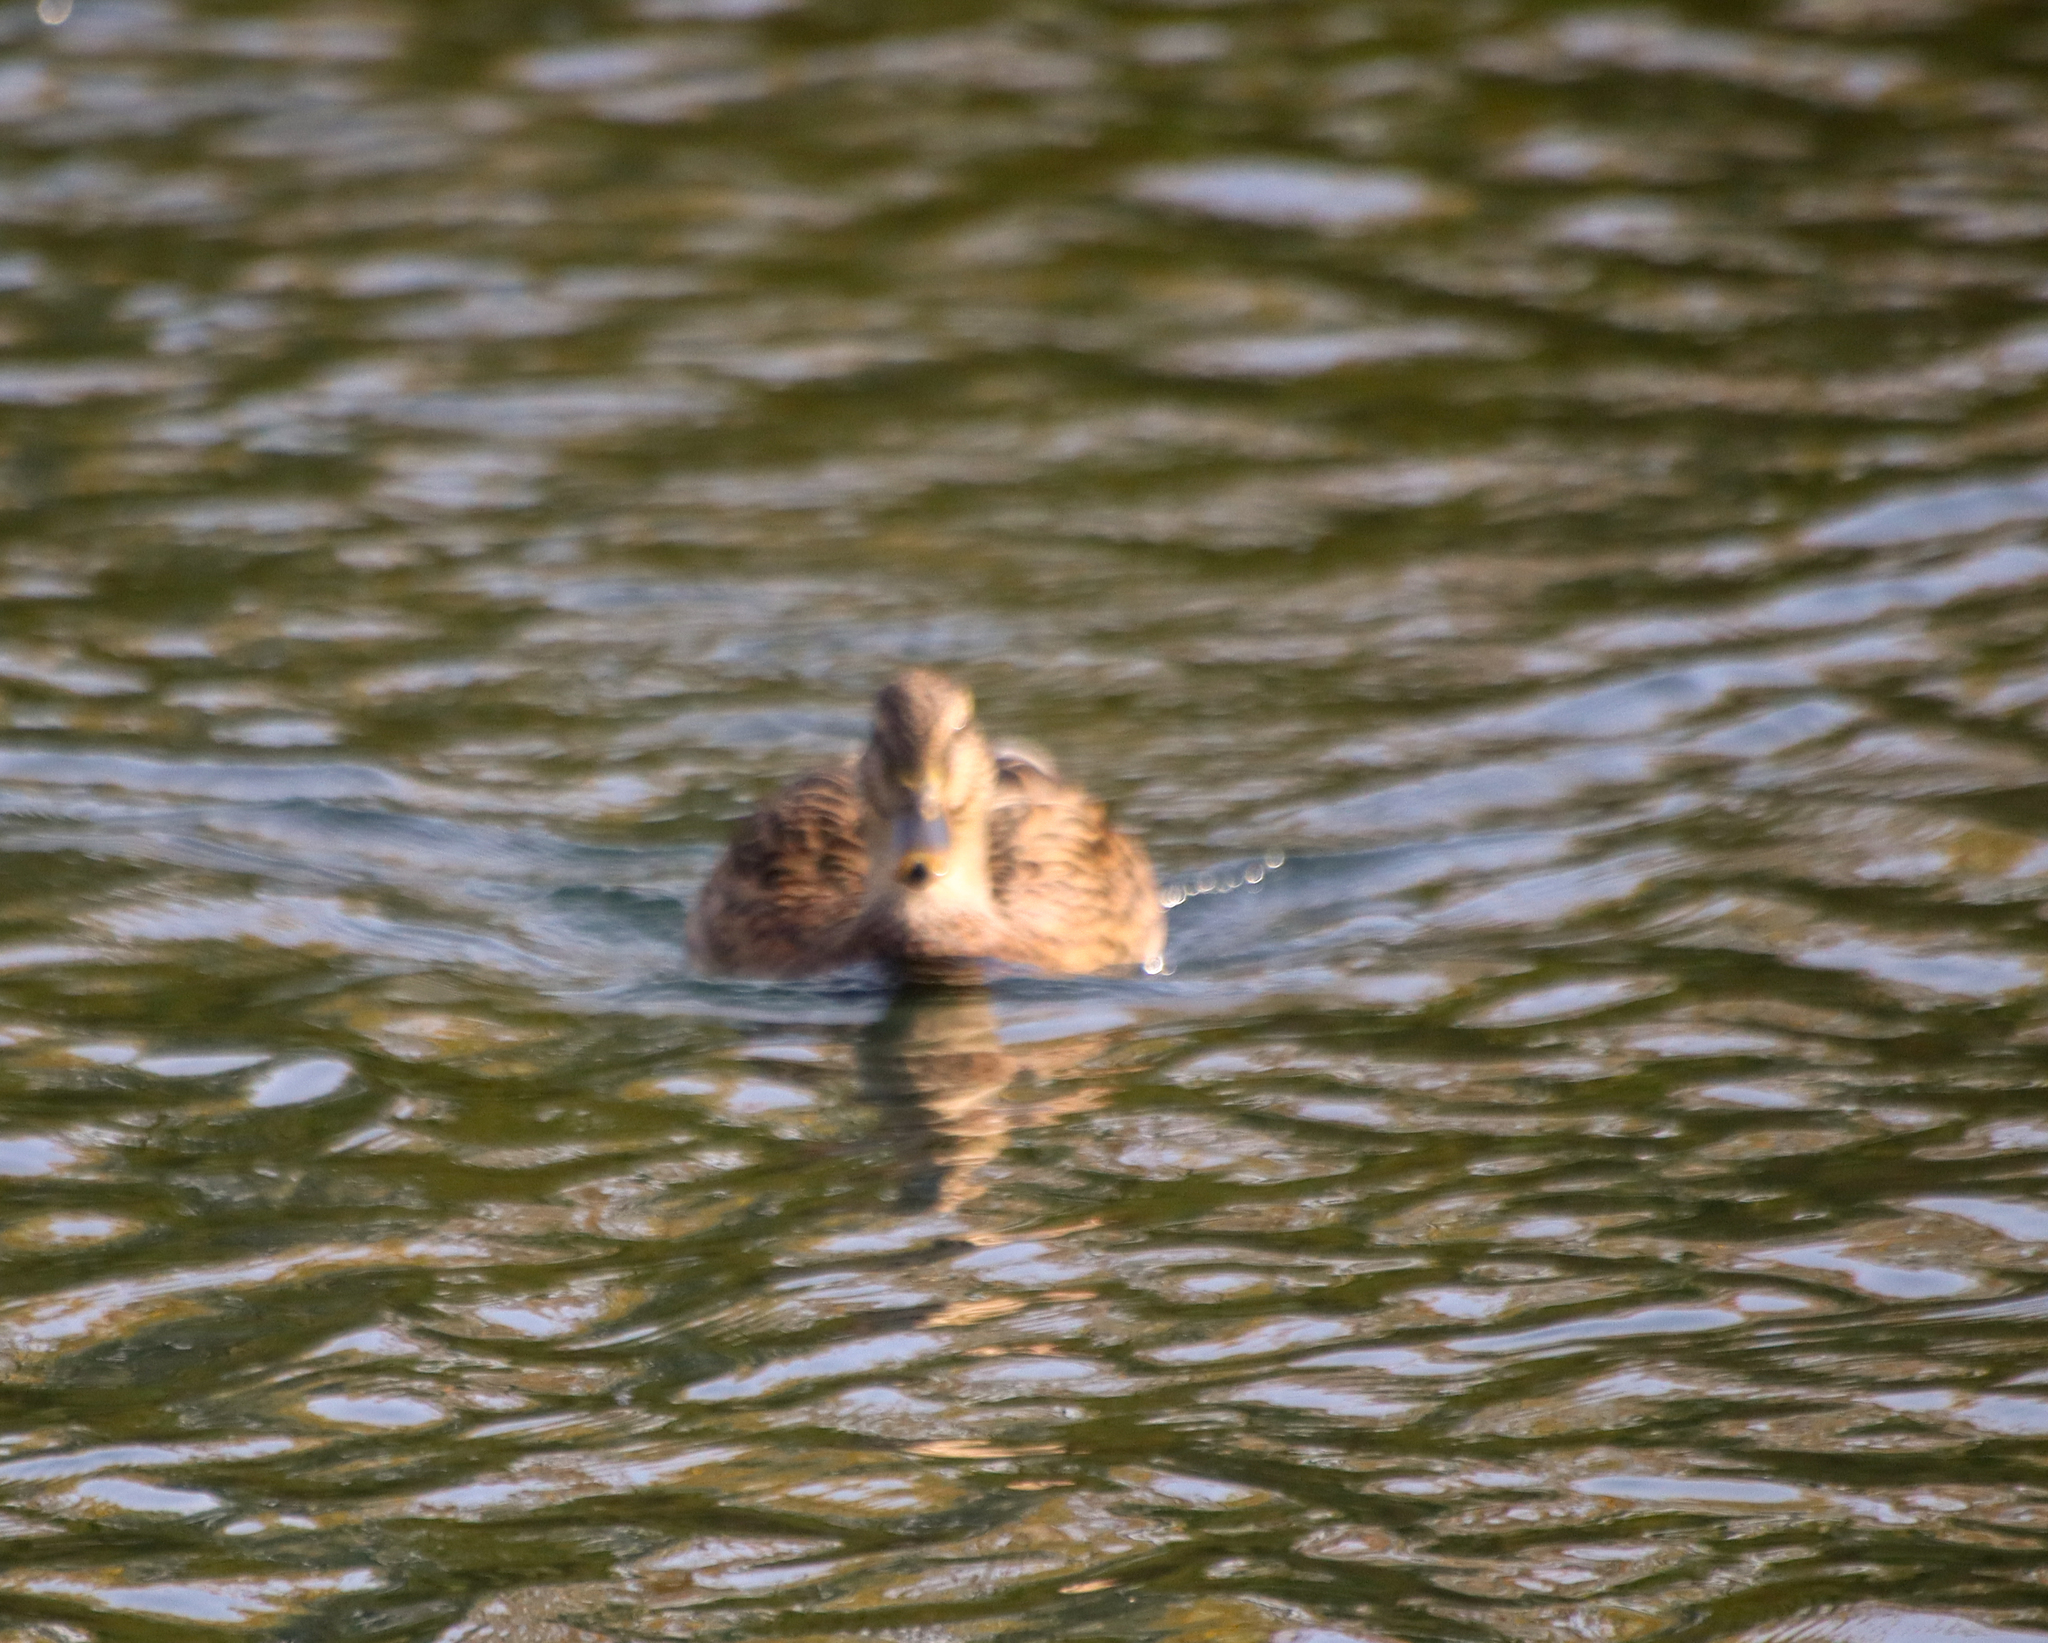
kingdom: Animalia
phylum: Chordata
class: Aves
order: Anseriformes
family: Anatidae
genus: Anas
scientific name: Anas platyrhynchos
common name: Mallard
